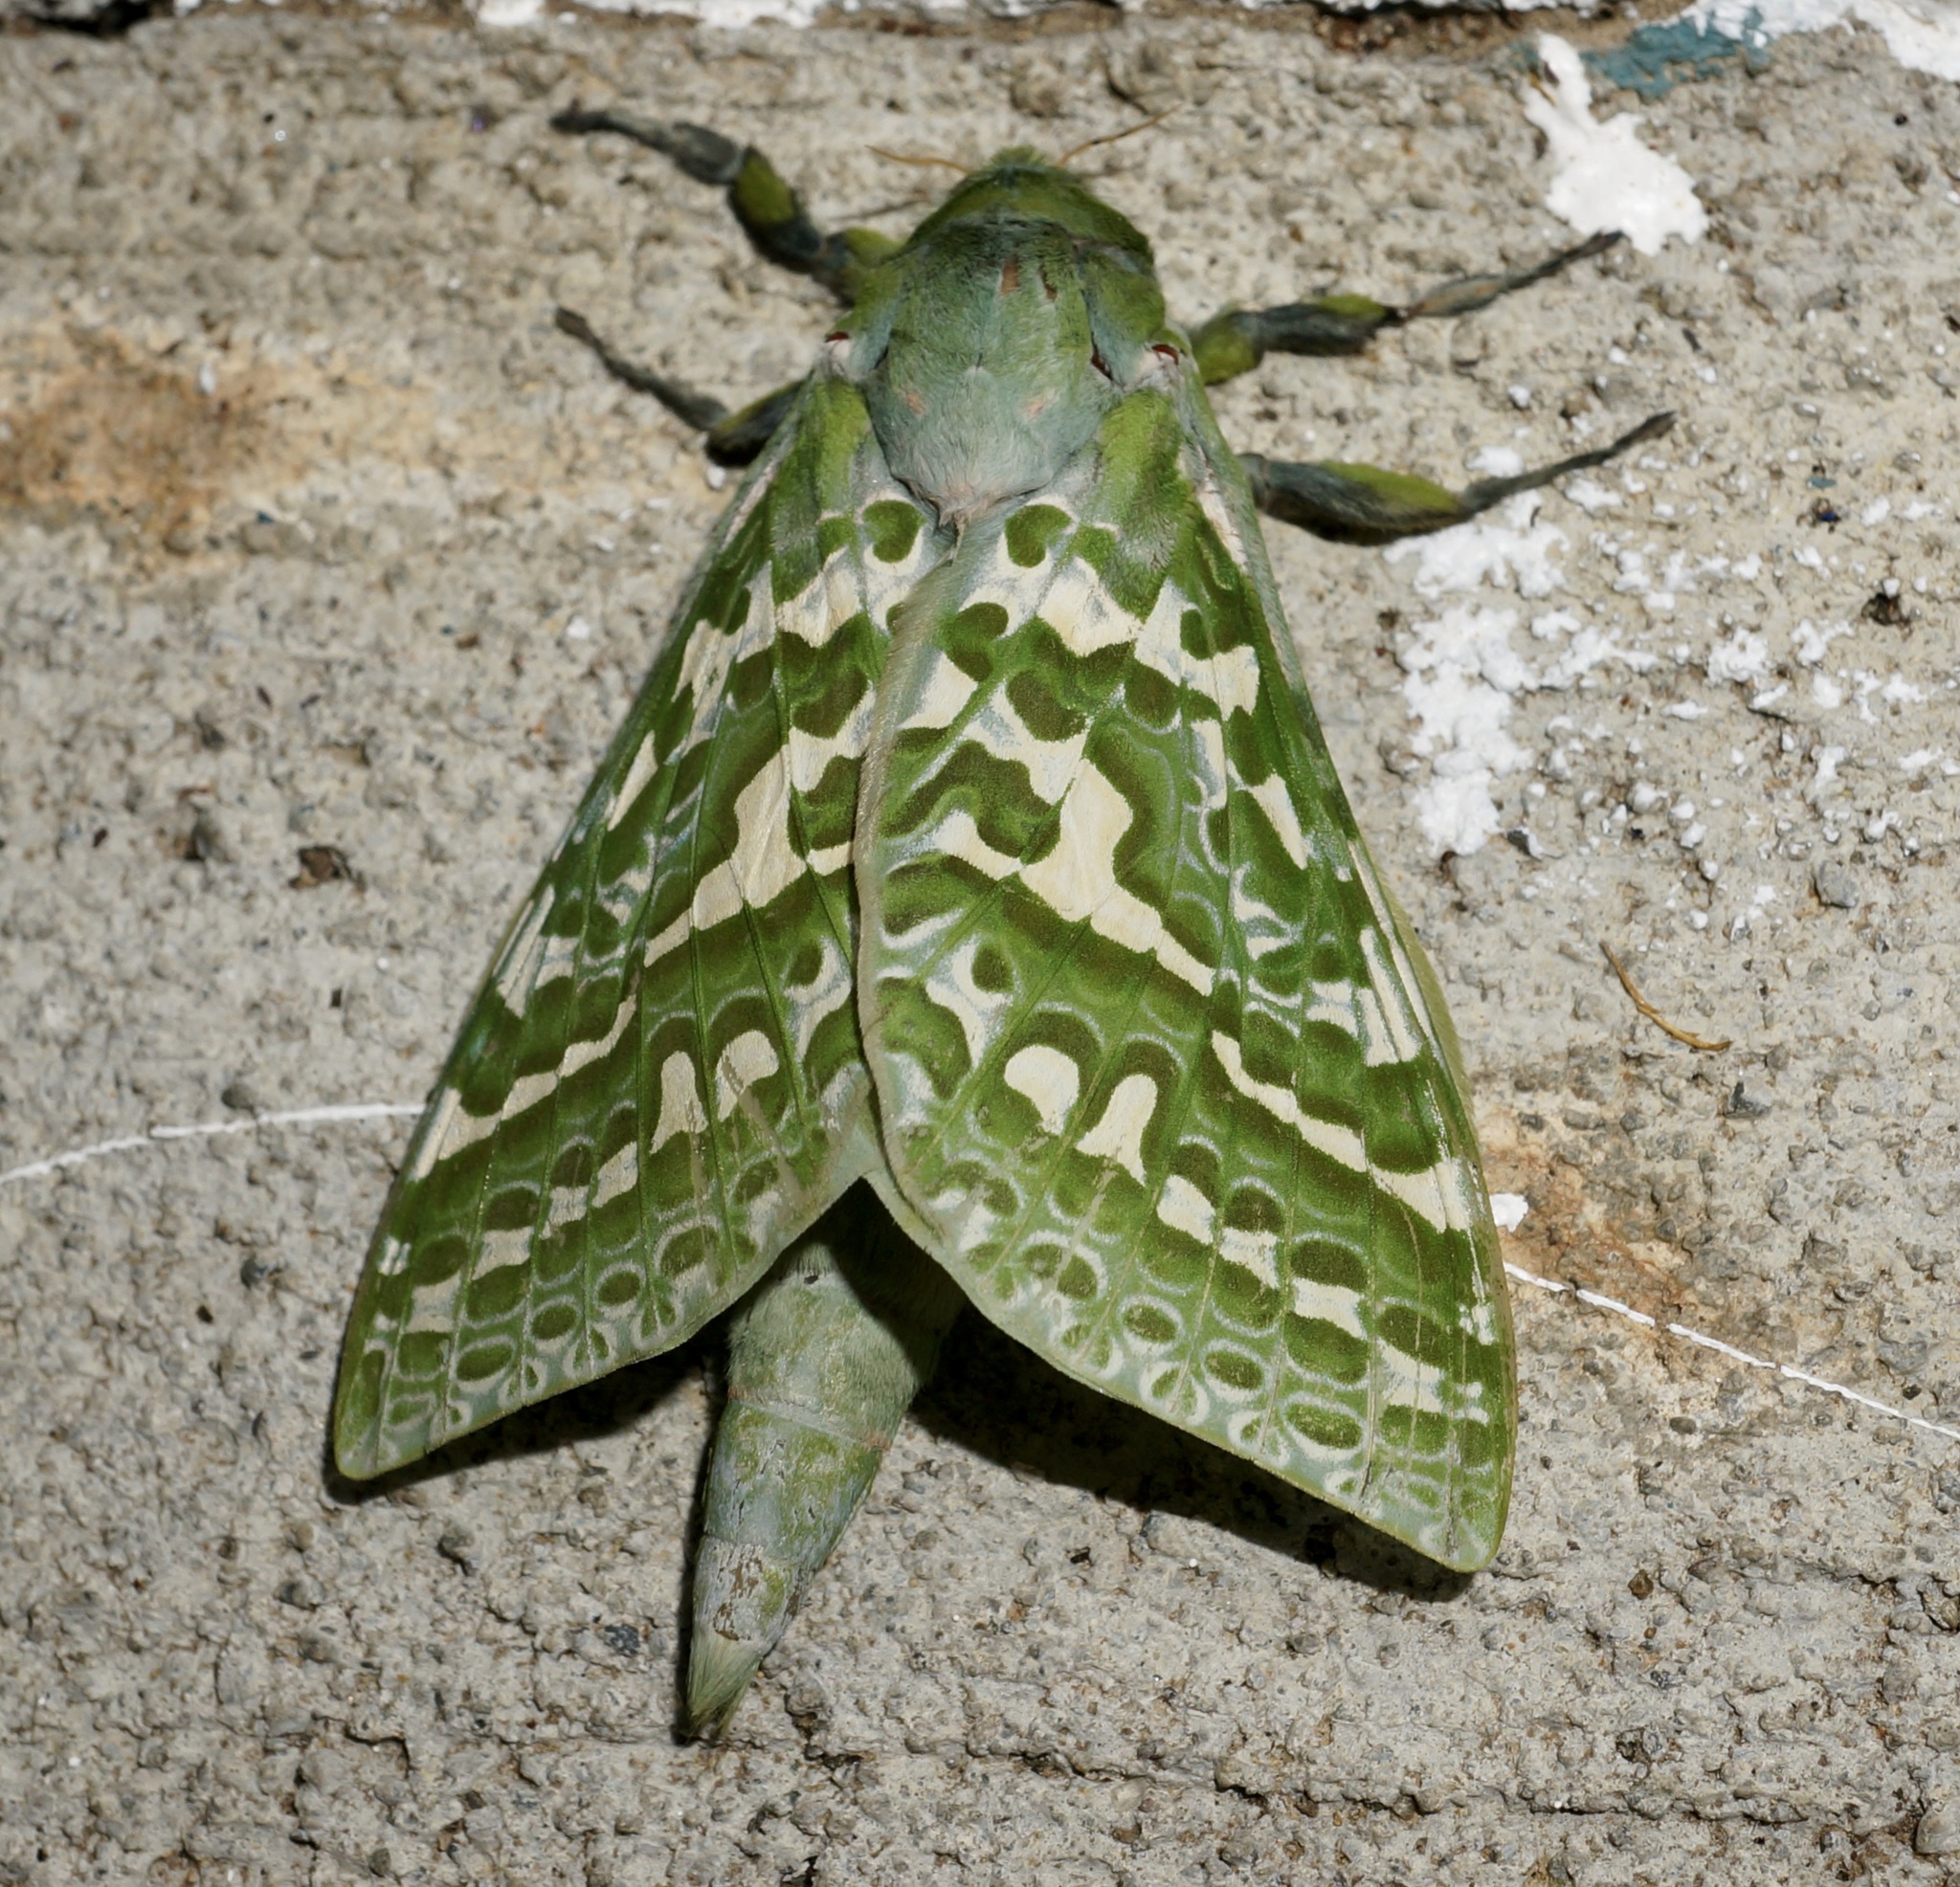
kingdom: Animalia
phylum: Arthropoda
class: Insecta
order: Lepidoptera
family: Hepialidae
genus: Aenetus
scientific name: Aenetus virescens
